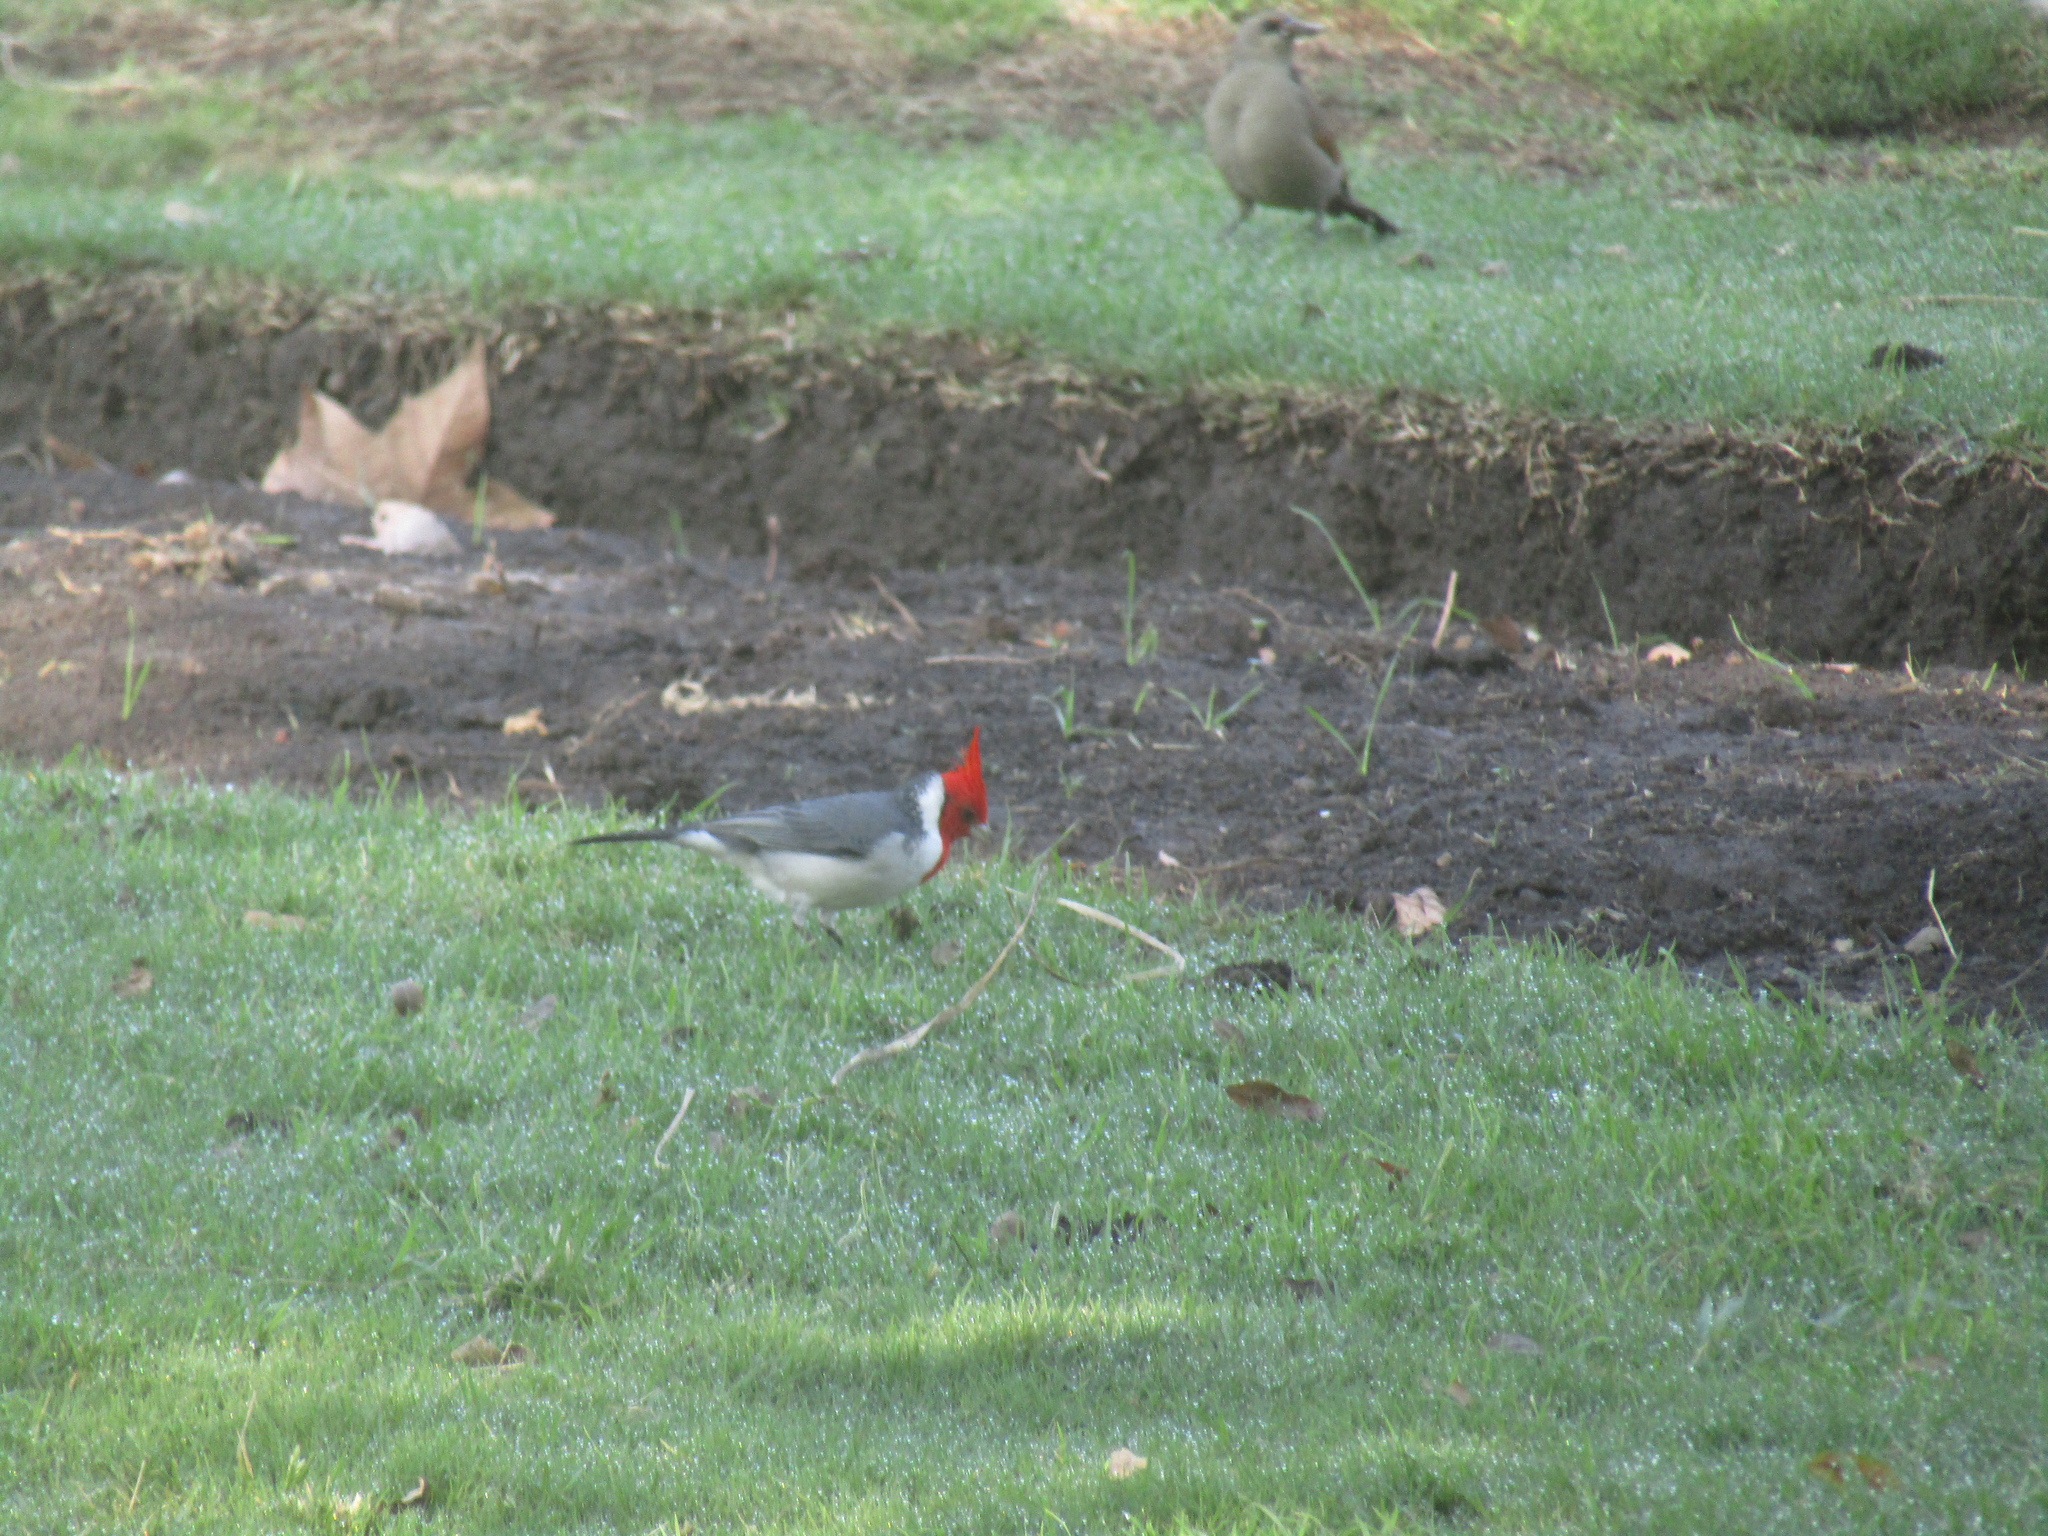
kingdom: Animalia
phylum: Chordata
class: Aves
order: Passeriformes
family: Thraupidae
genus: Paroaria
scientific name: Paroaria coronata
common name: Red-crested cardinal
